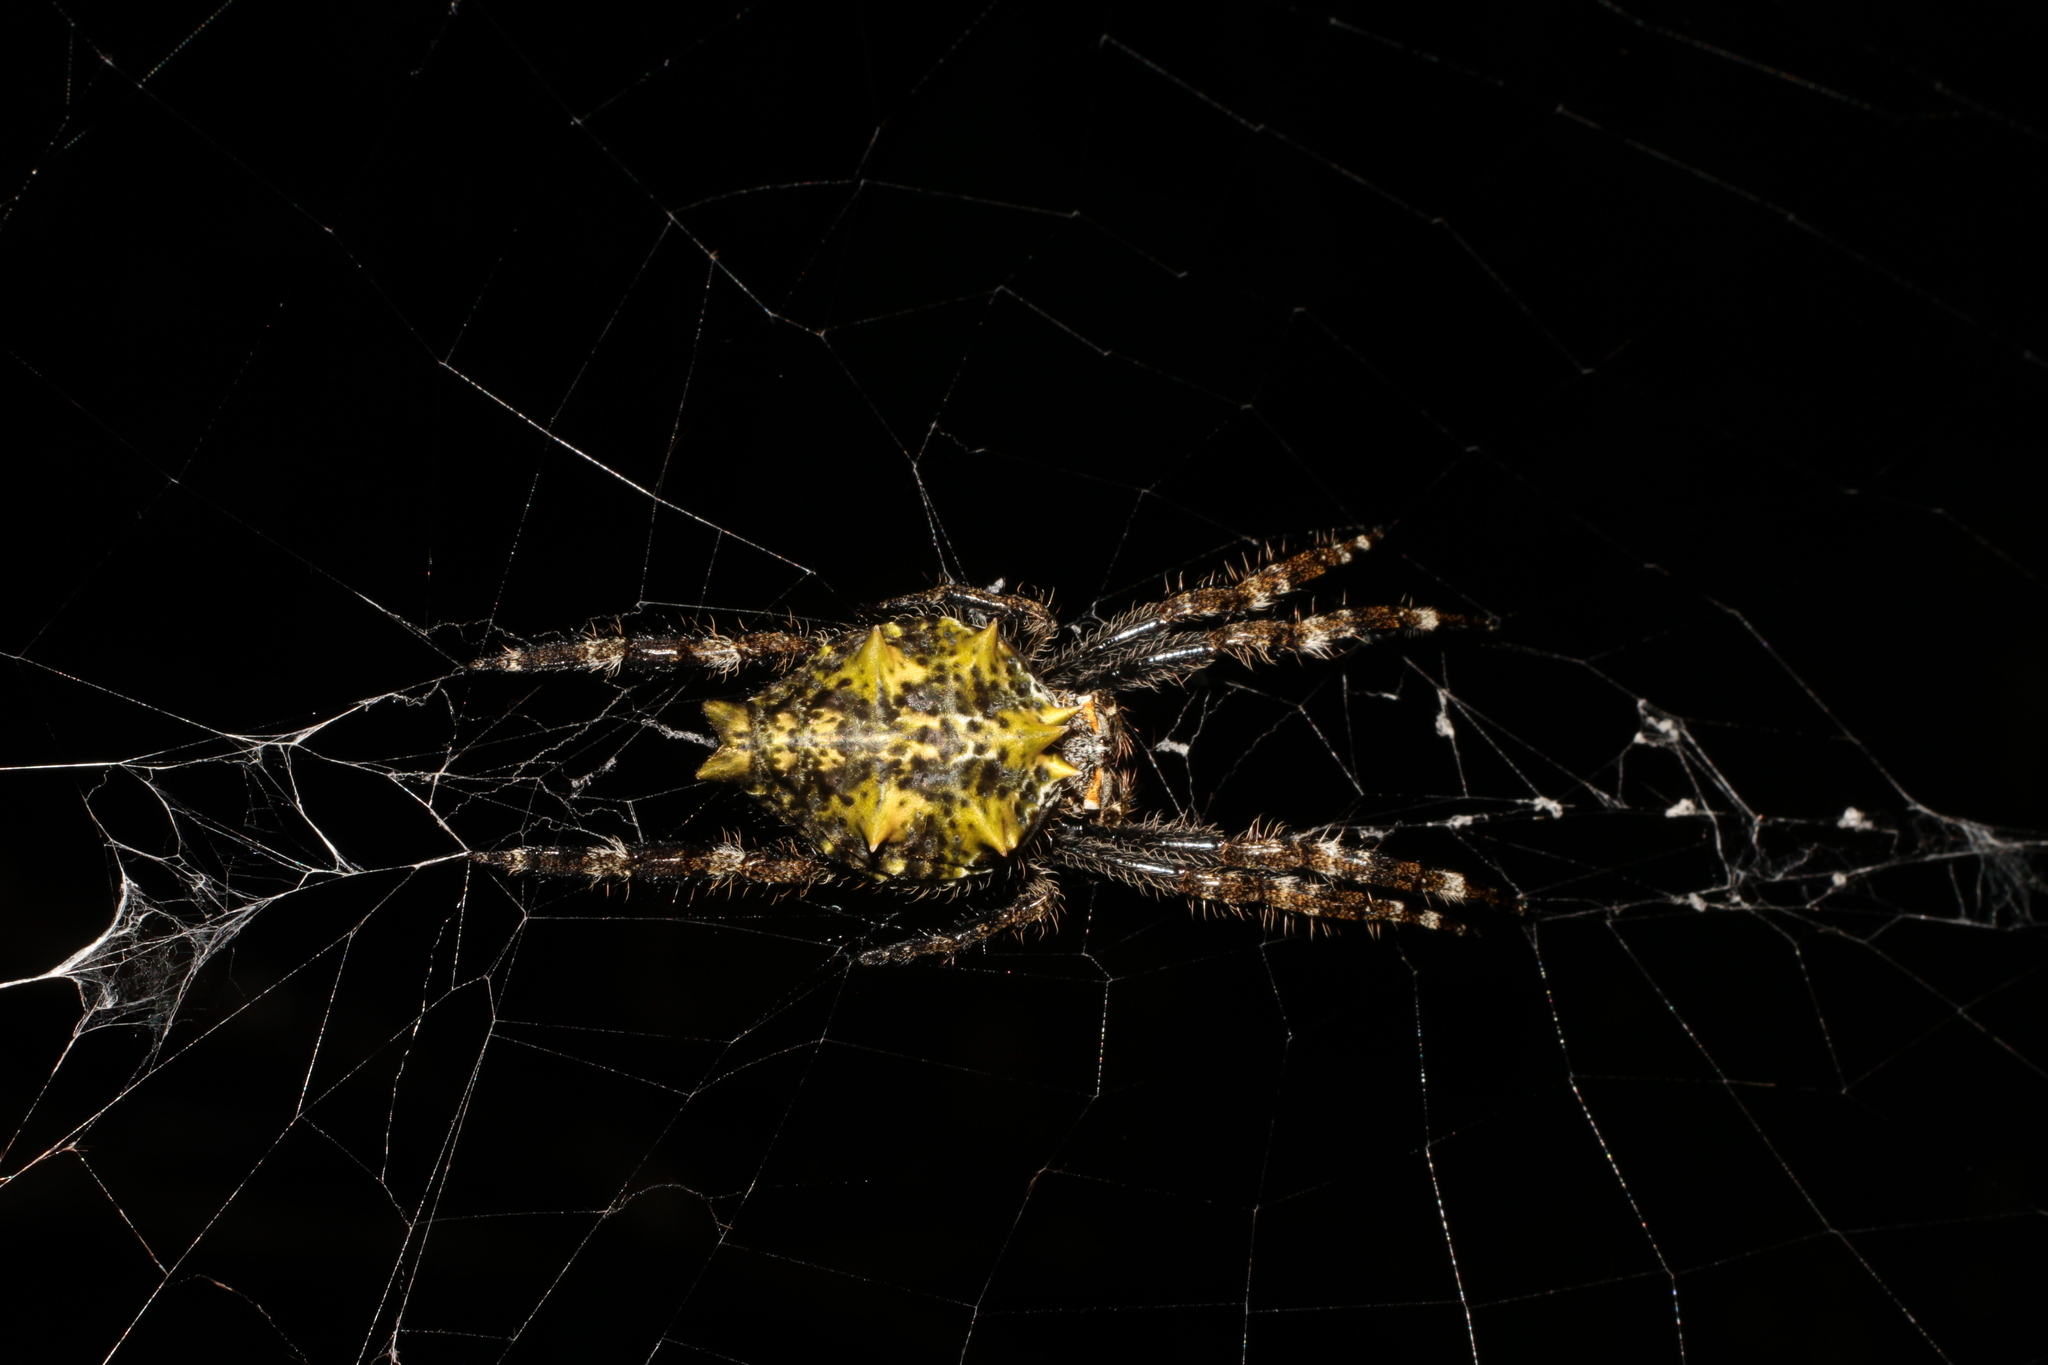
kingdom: Animalia
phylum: Arthropoda
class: Arachnida
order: Araneae
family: Araneidae
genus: Caerostris
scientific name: Caerostris pero
